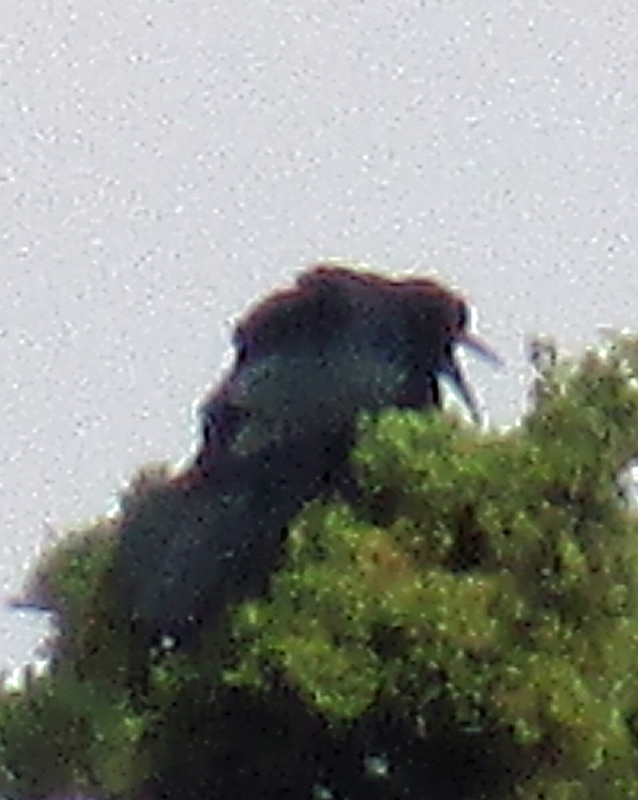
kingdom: Animalia
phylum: Chordata
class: Aves
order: Passeriformes
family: Icteridae
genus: Quiscalus
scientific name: Quiscalus mexicanus
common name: Great-tailed grackle
